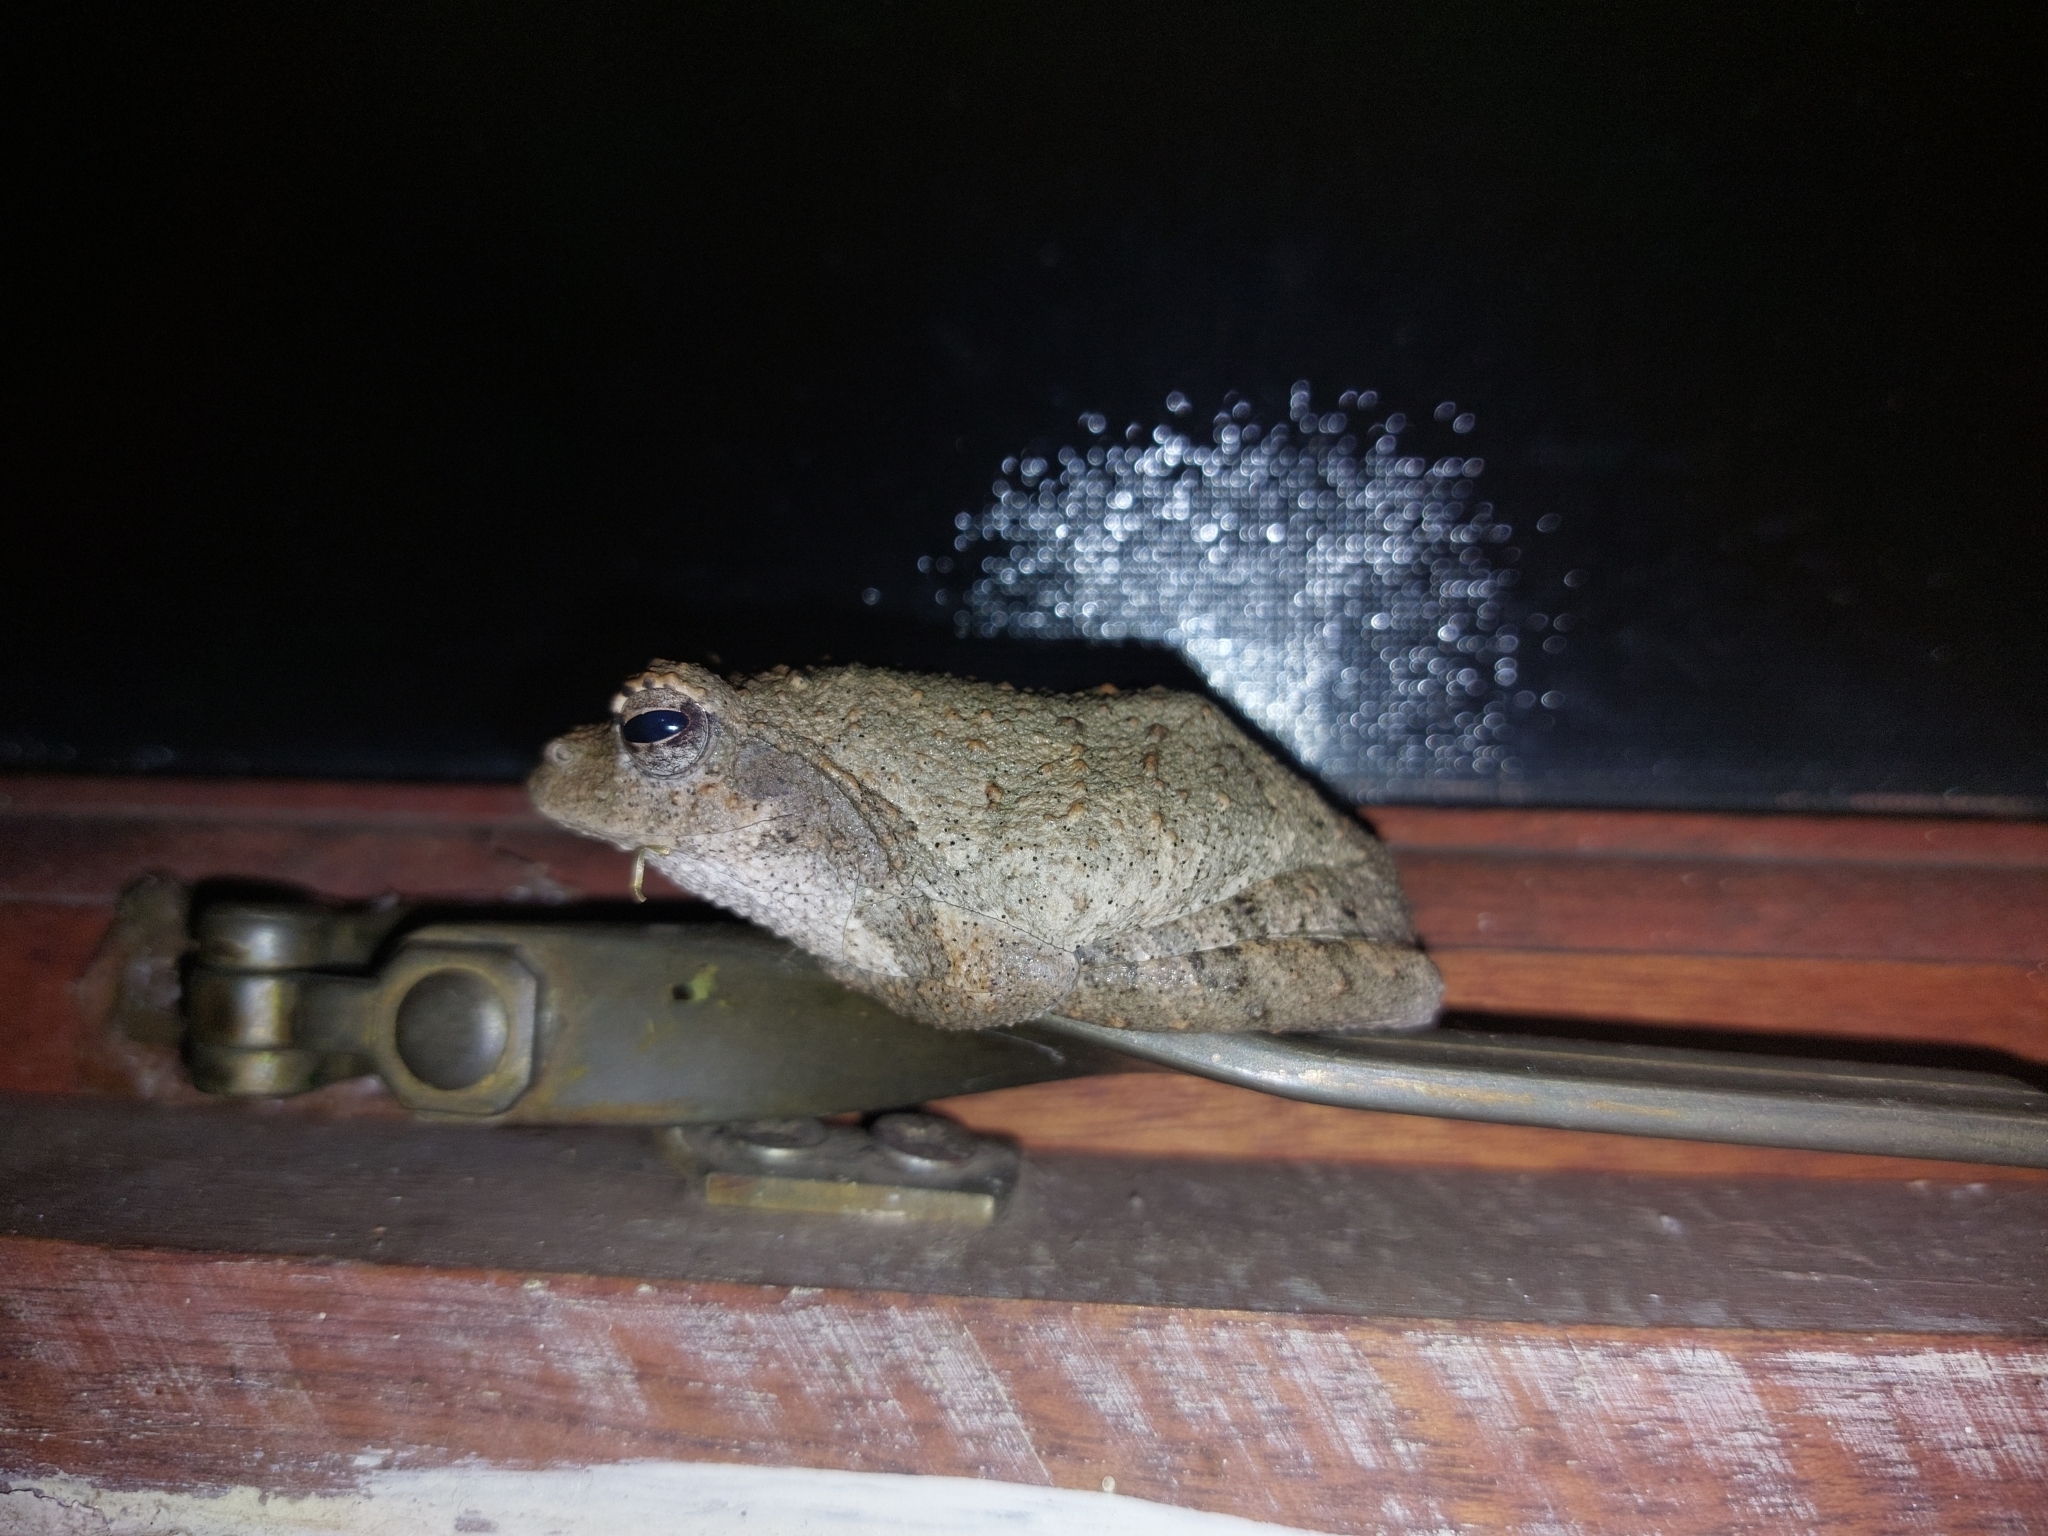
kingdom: Animalia
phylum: Chordata
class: Amphibia
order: Anura
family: Rhacophoridae
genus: Chiromantis
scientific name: Chiromantis xerampelina
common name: African gray treefrog
